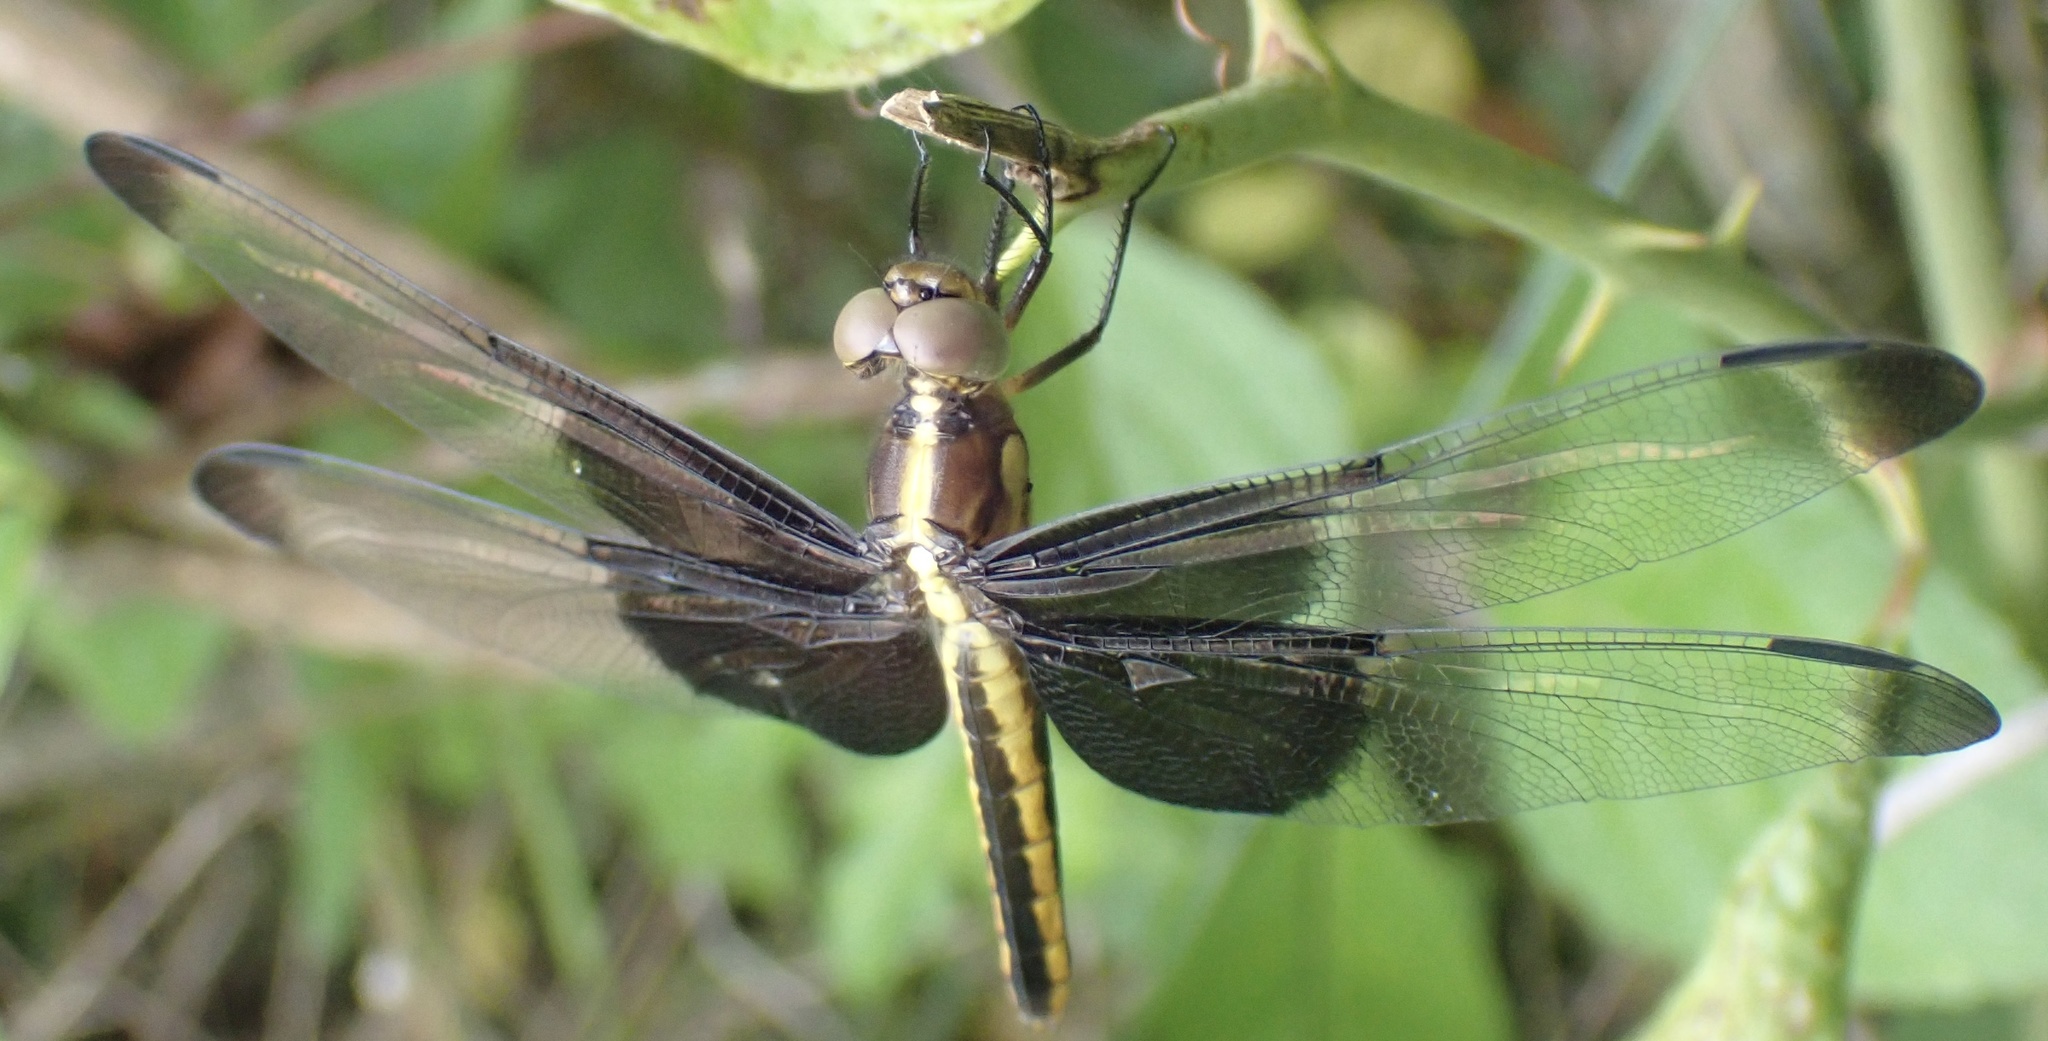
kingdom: Animalia
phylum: Arthropoda
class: Insecta
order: Odonata
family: Libellulidae
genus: Libellula
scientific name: Libellula luctuosa
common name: Widow skimmer
